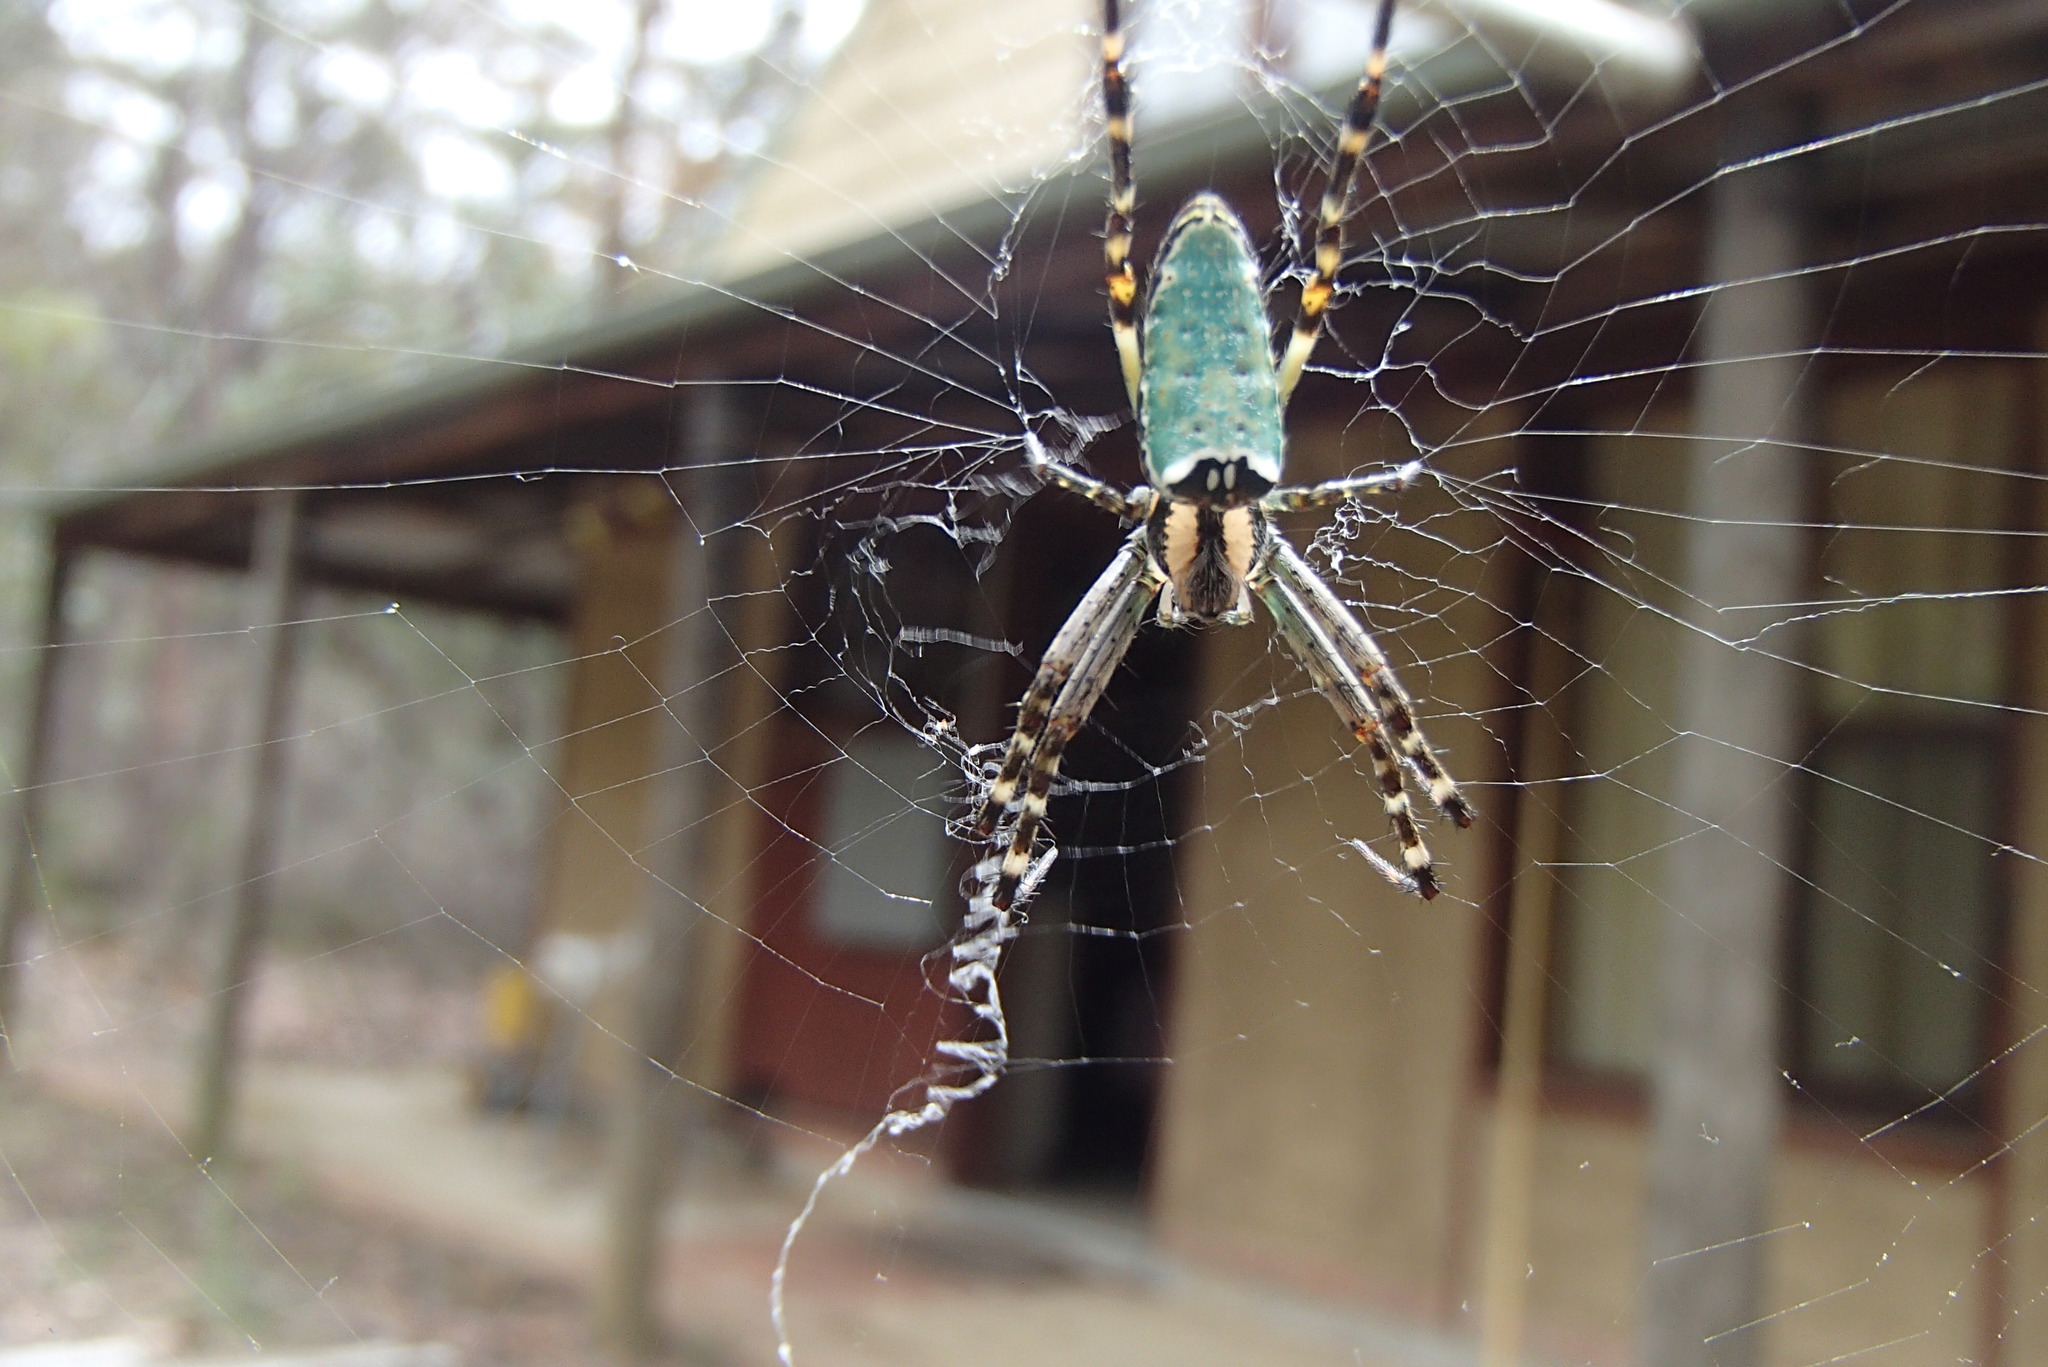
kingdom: Animalia
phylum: Arthropoda
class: Arachnida
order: Araneae
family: Araneidae
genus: Plebs
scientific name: Plebs bradleyi
